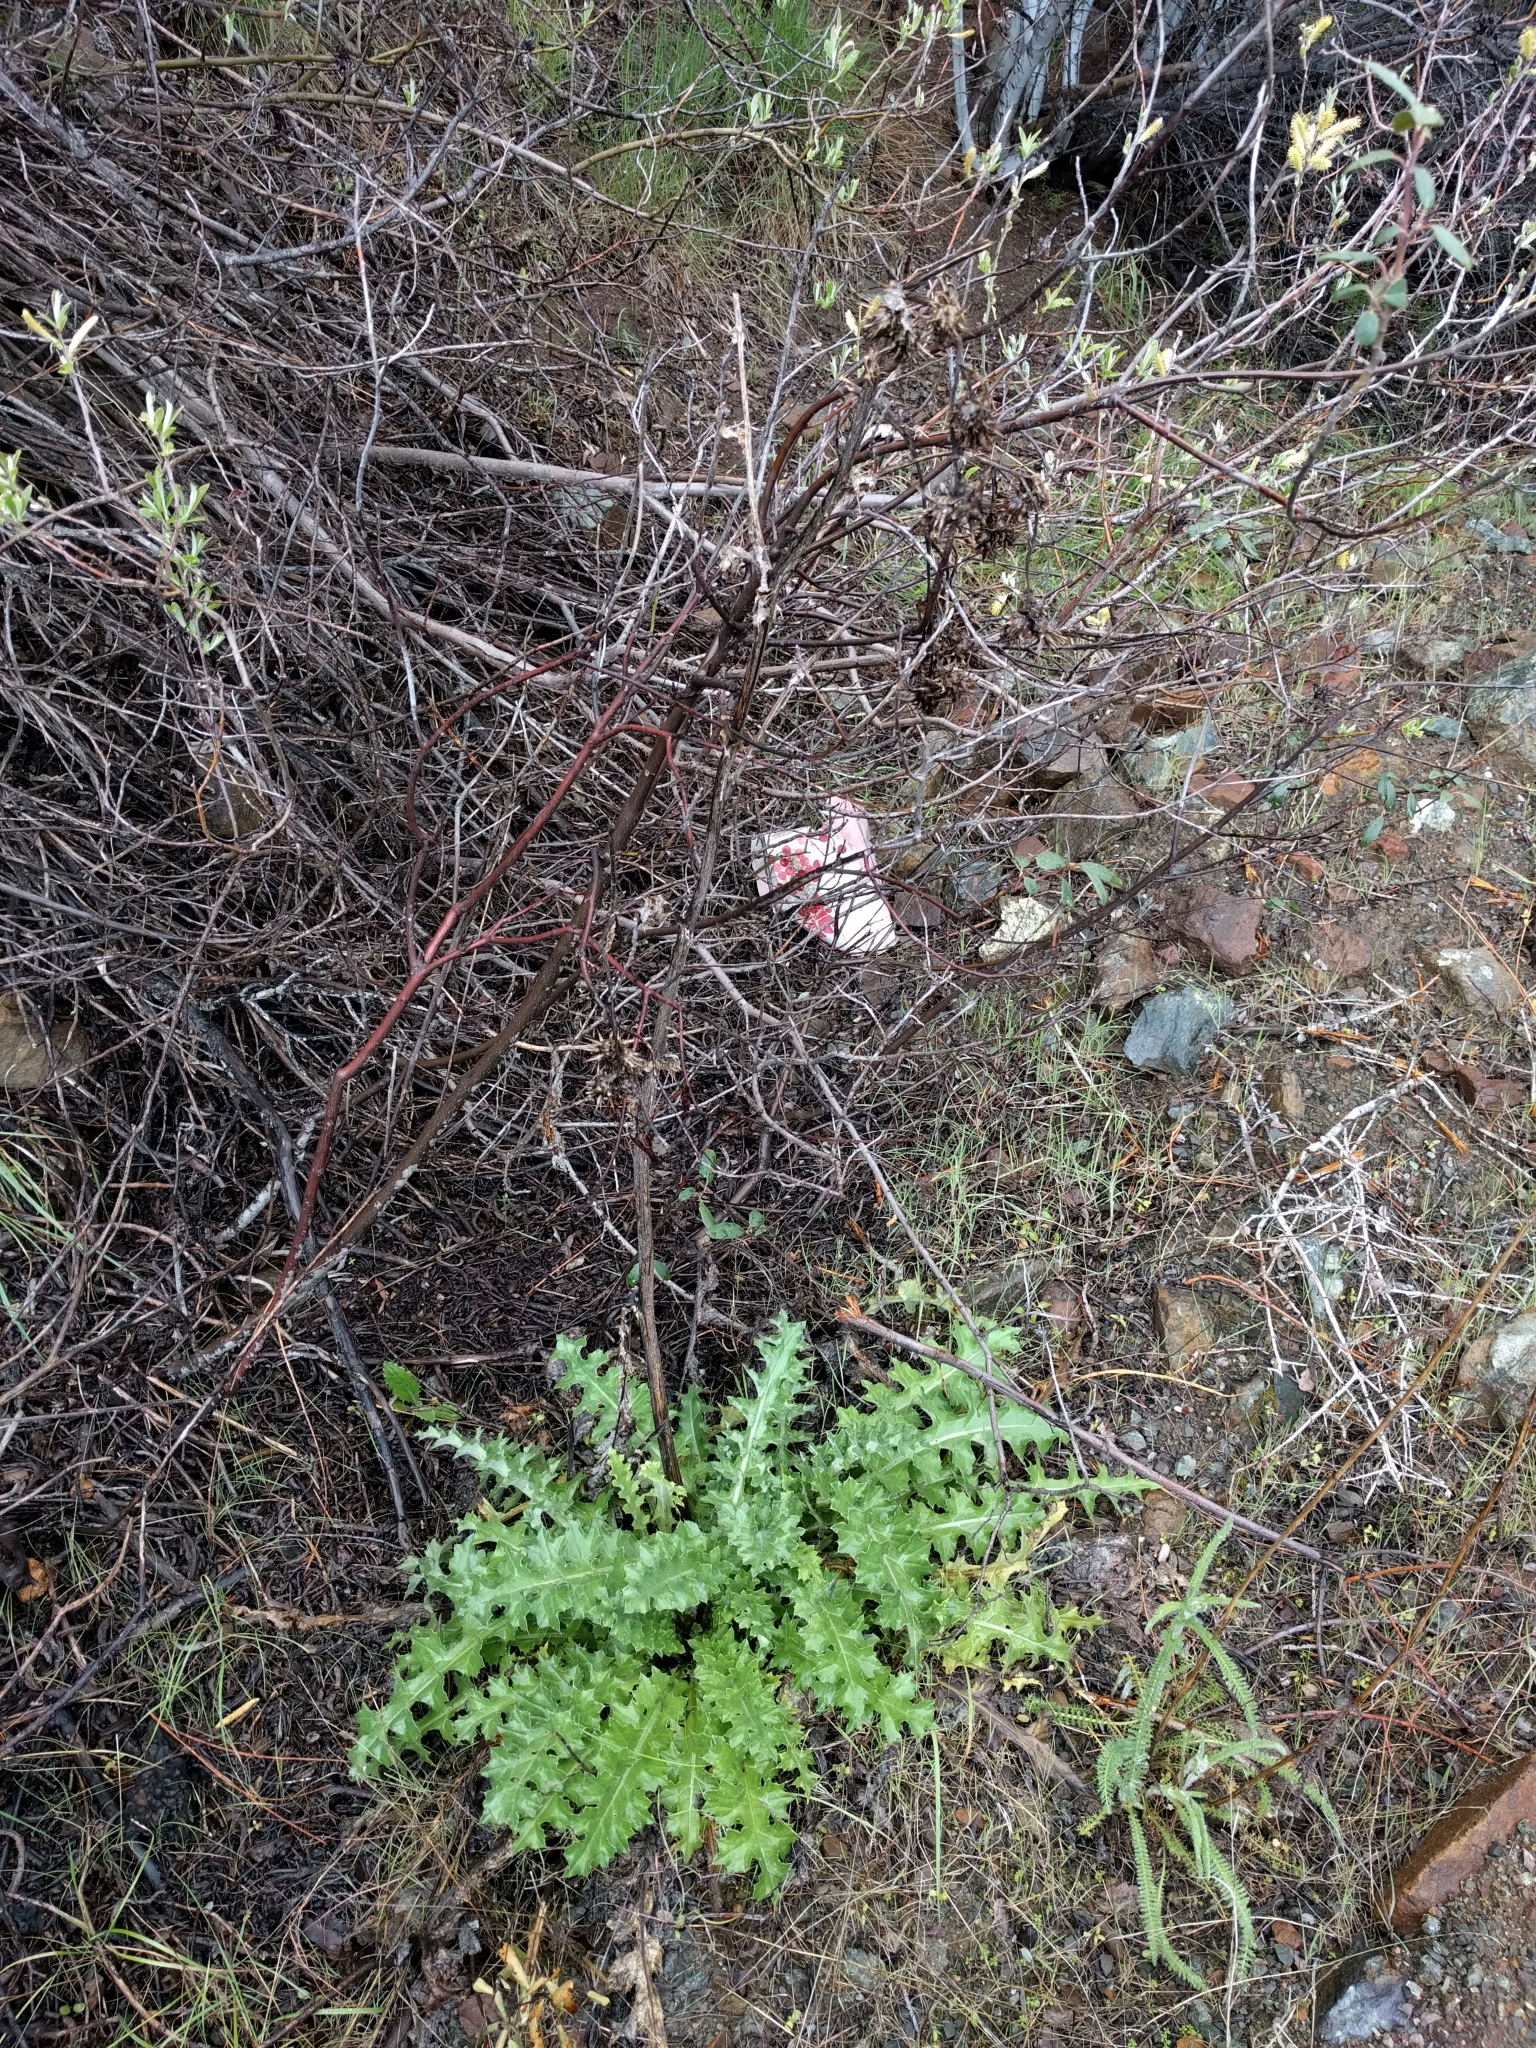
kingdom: Plantae
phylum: Tracheophyta
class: Magnoliopsida
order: Asterales
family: Asteraceae
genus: Cirsium
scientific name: Cirsium fontinale
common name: Fountain thistle
